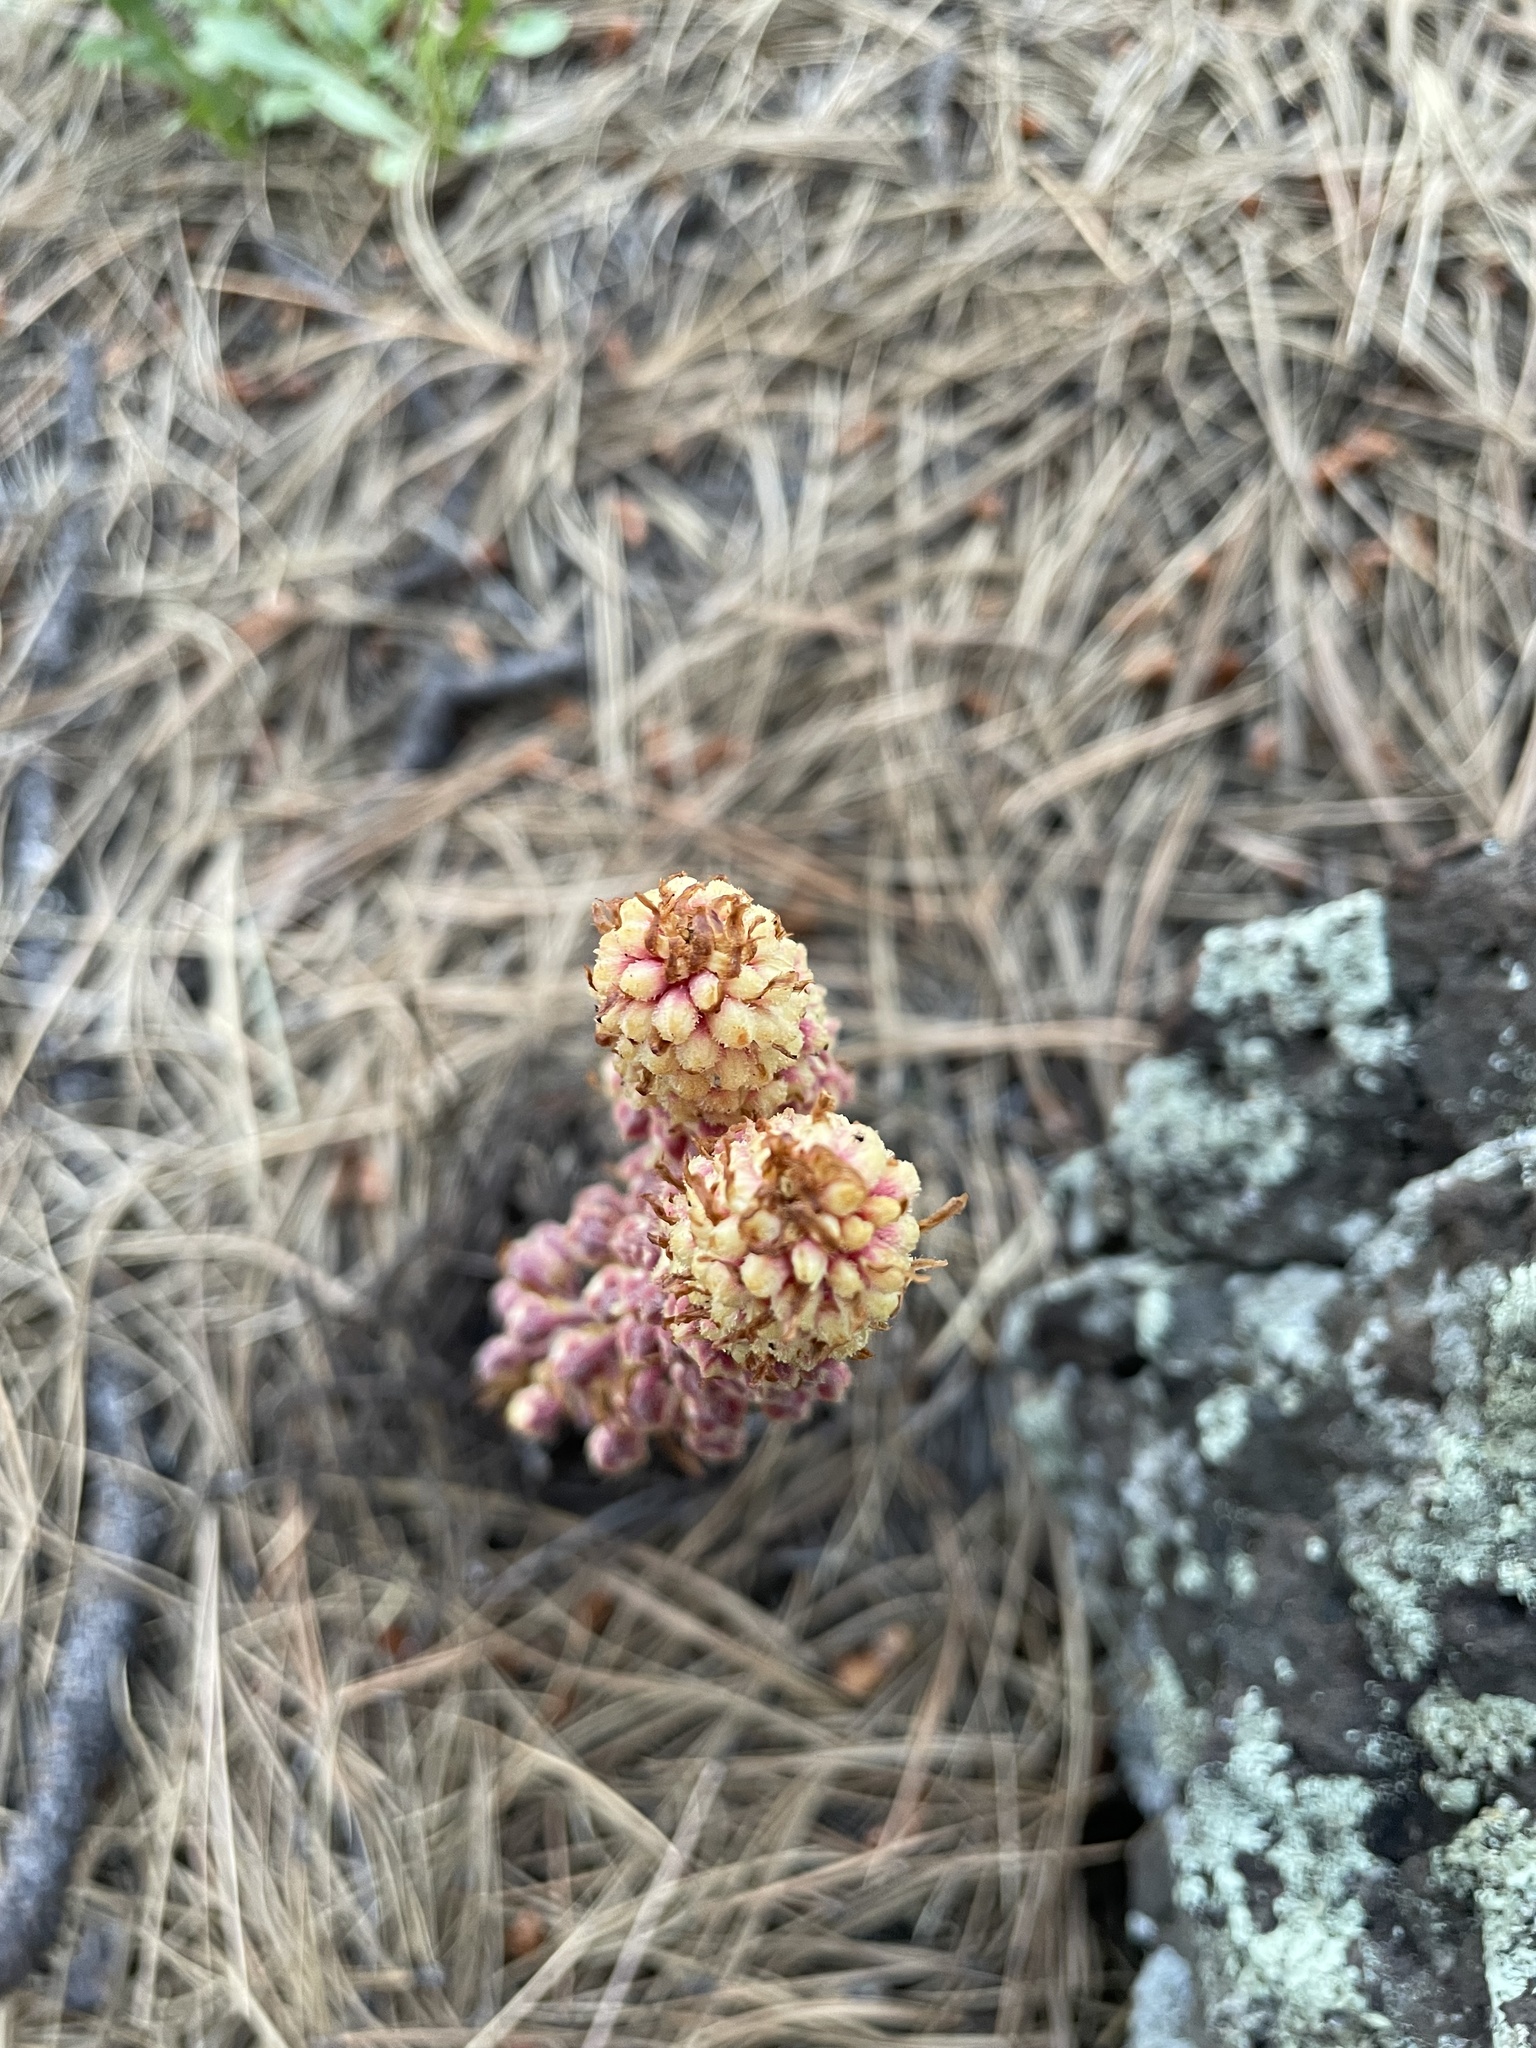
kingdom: Plantae
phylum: Tracheophyta
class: Magnoliopsida
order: Ericales
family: Ericaceae
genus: Pterospora
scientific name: Pterospora andromedea
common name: Giant bird's-nest
